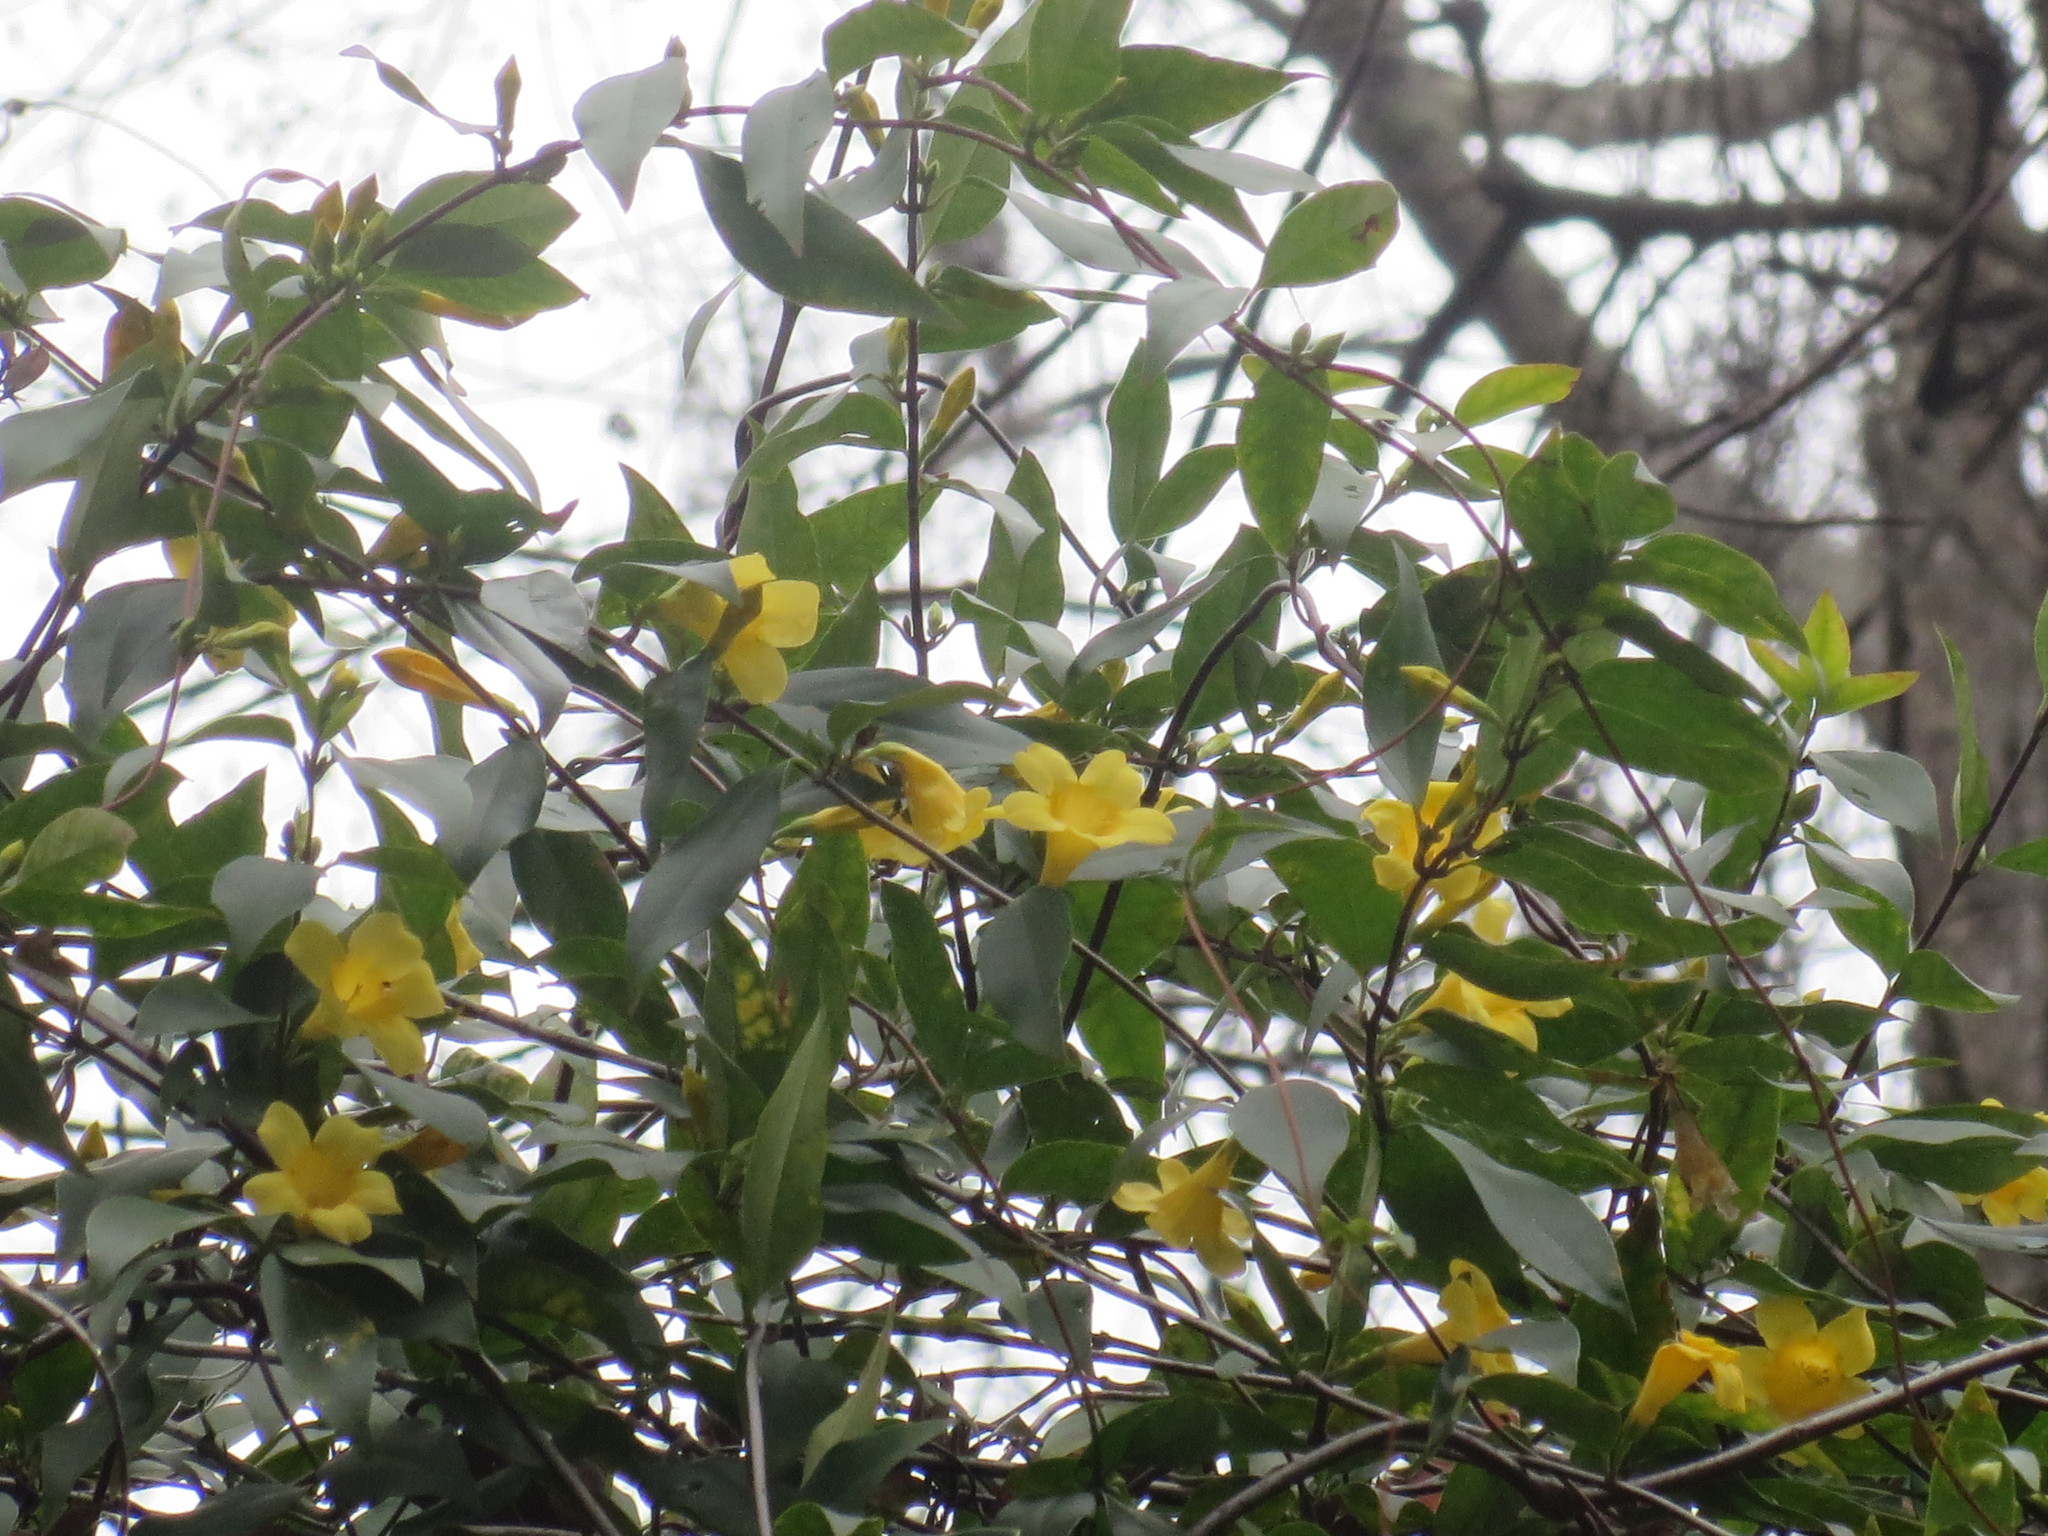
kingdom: Plantae
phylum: Tracheophyta
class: Magnoliopsida
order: Gentianales
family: Gelsemiaceae
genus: Gelsemium
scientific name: Gelsemium sempervirens
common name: Carolina-jasmine
